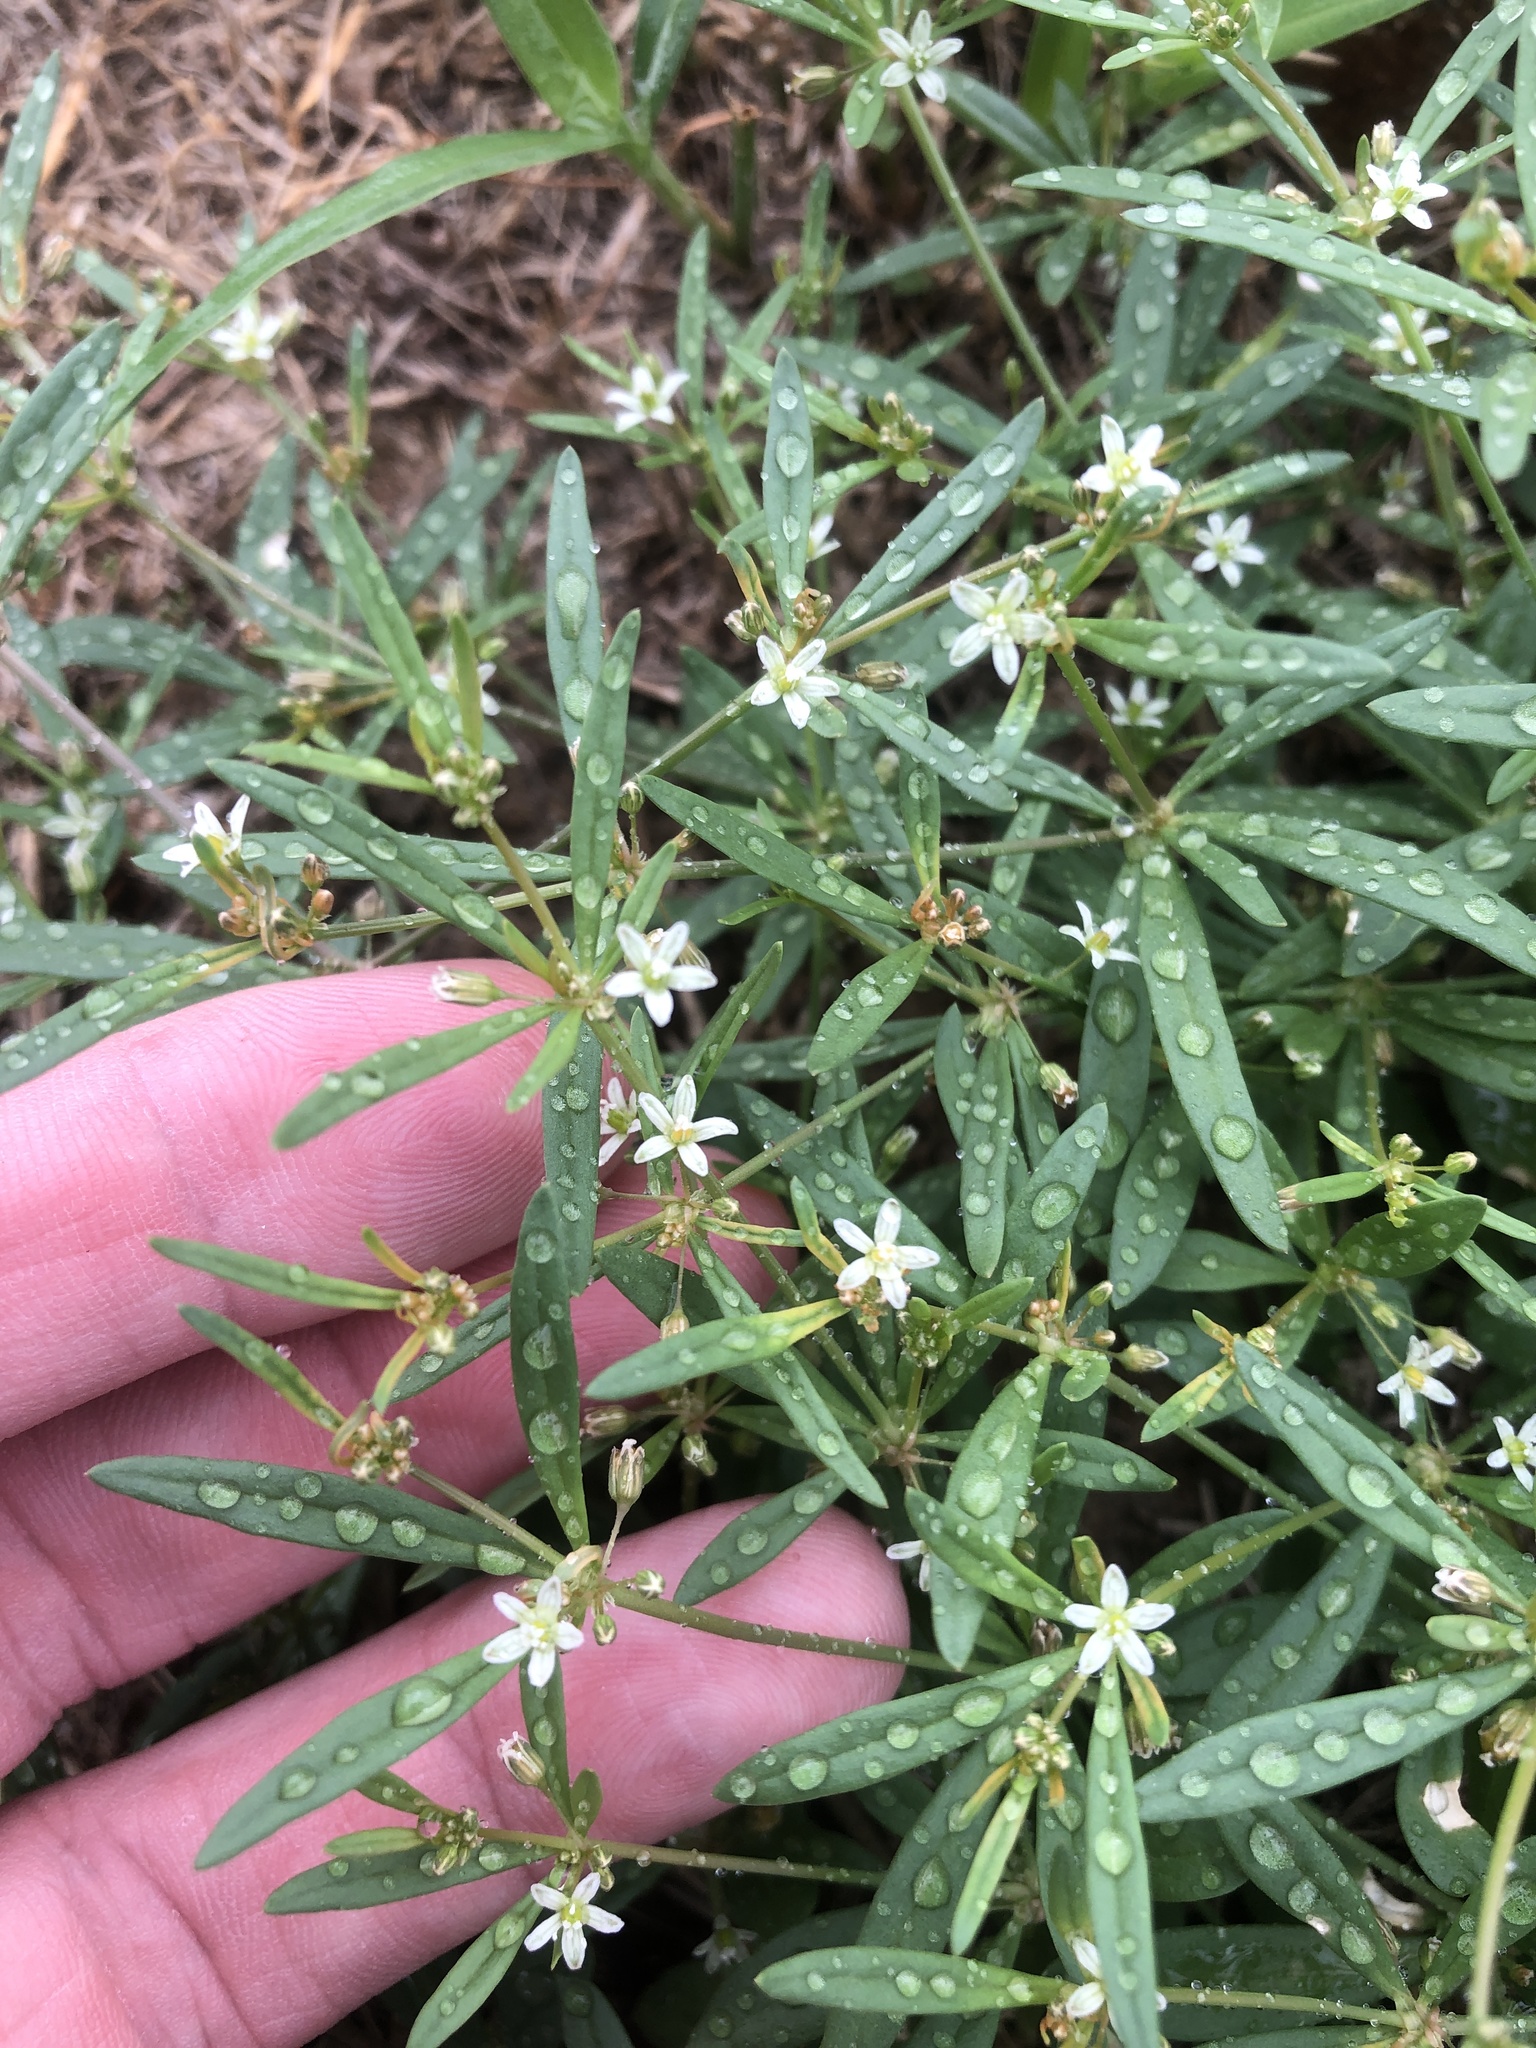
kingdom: Plantae
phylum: Tracheophyta
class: Magnoliopsida
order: Caryophyllales
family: Molluginaceae
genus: Mollugo
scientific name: Mollugo verticillata
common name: Green carpetweed
